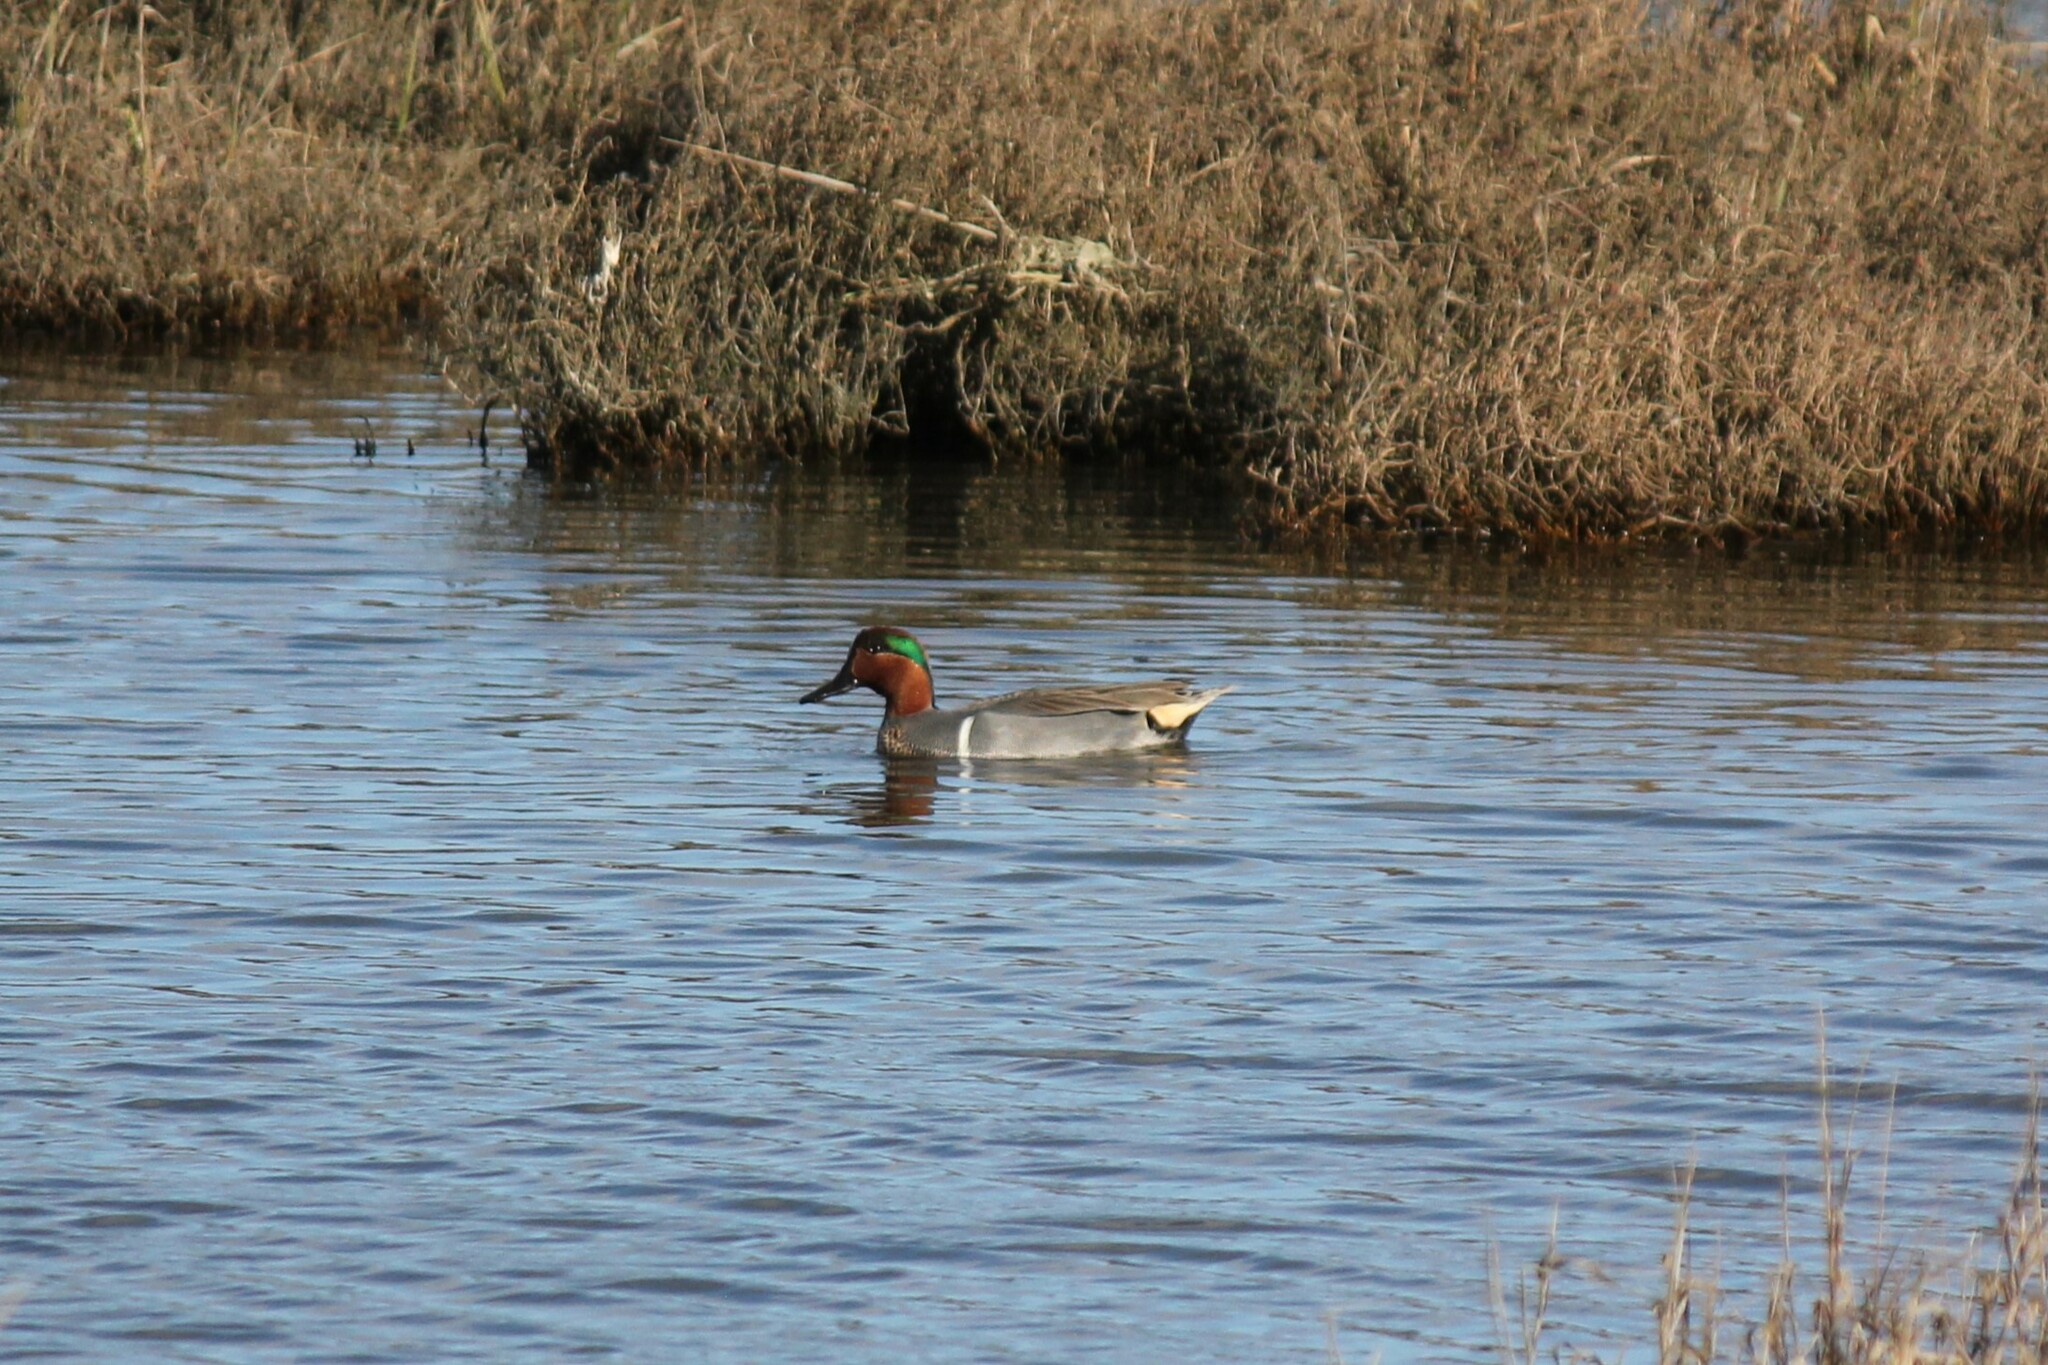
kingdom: Animalia
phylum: Chordata
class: Aves
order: Anseriformes
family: Anatidae
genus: Anas
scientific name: Anas carolinensis
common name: Green-winged teal
